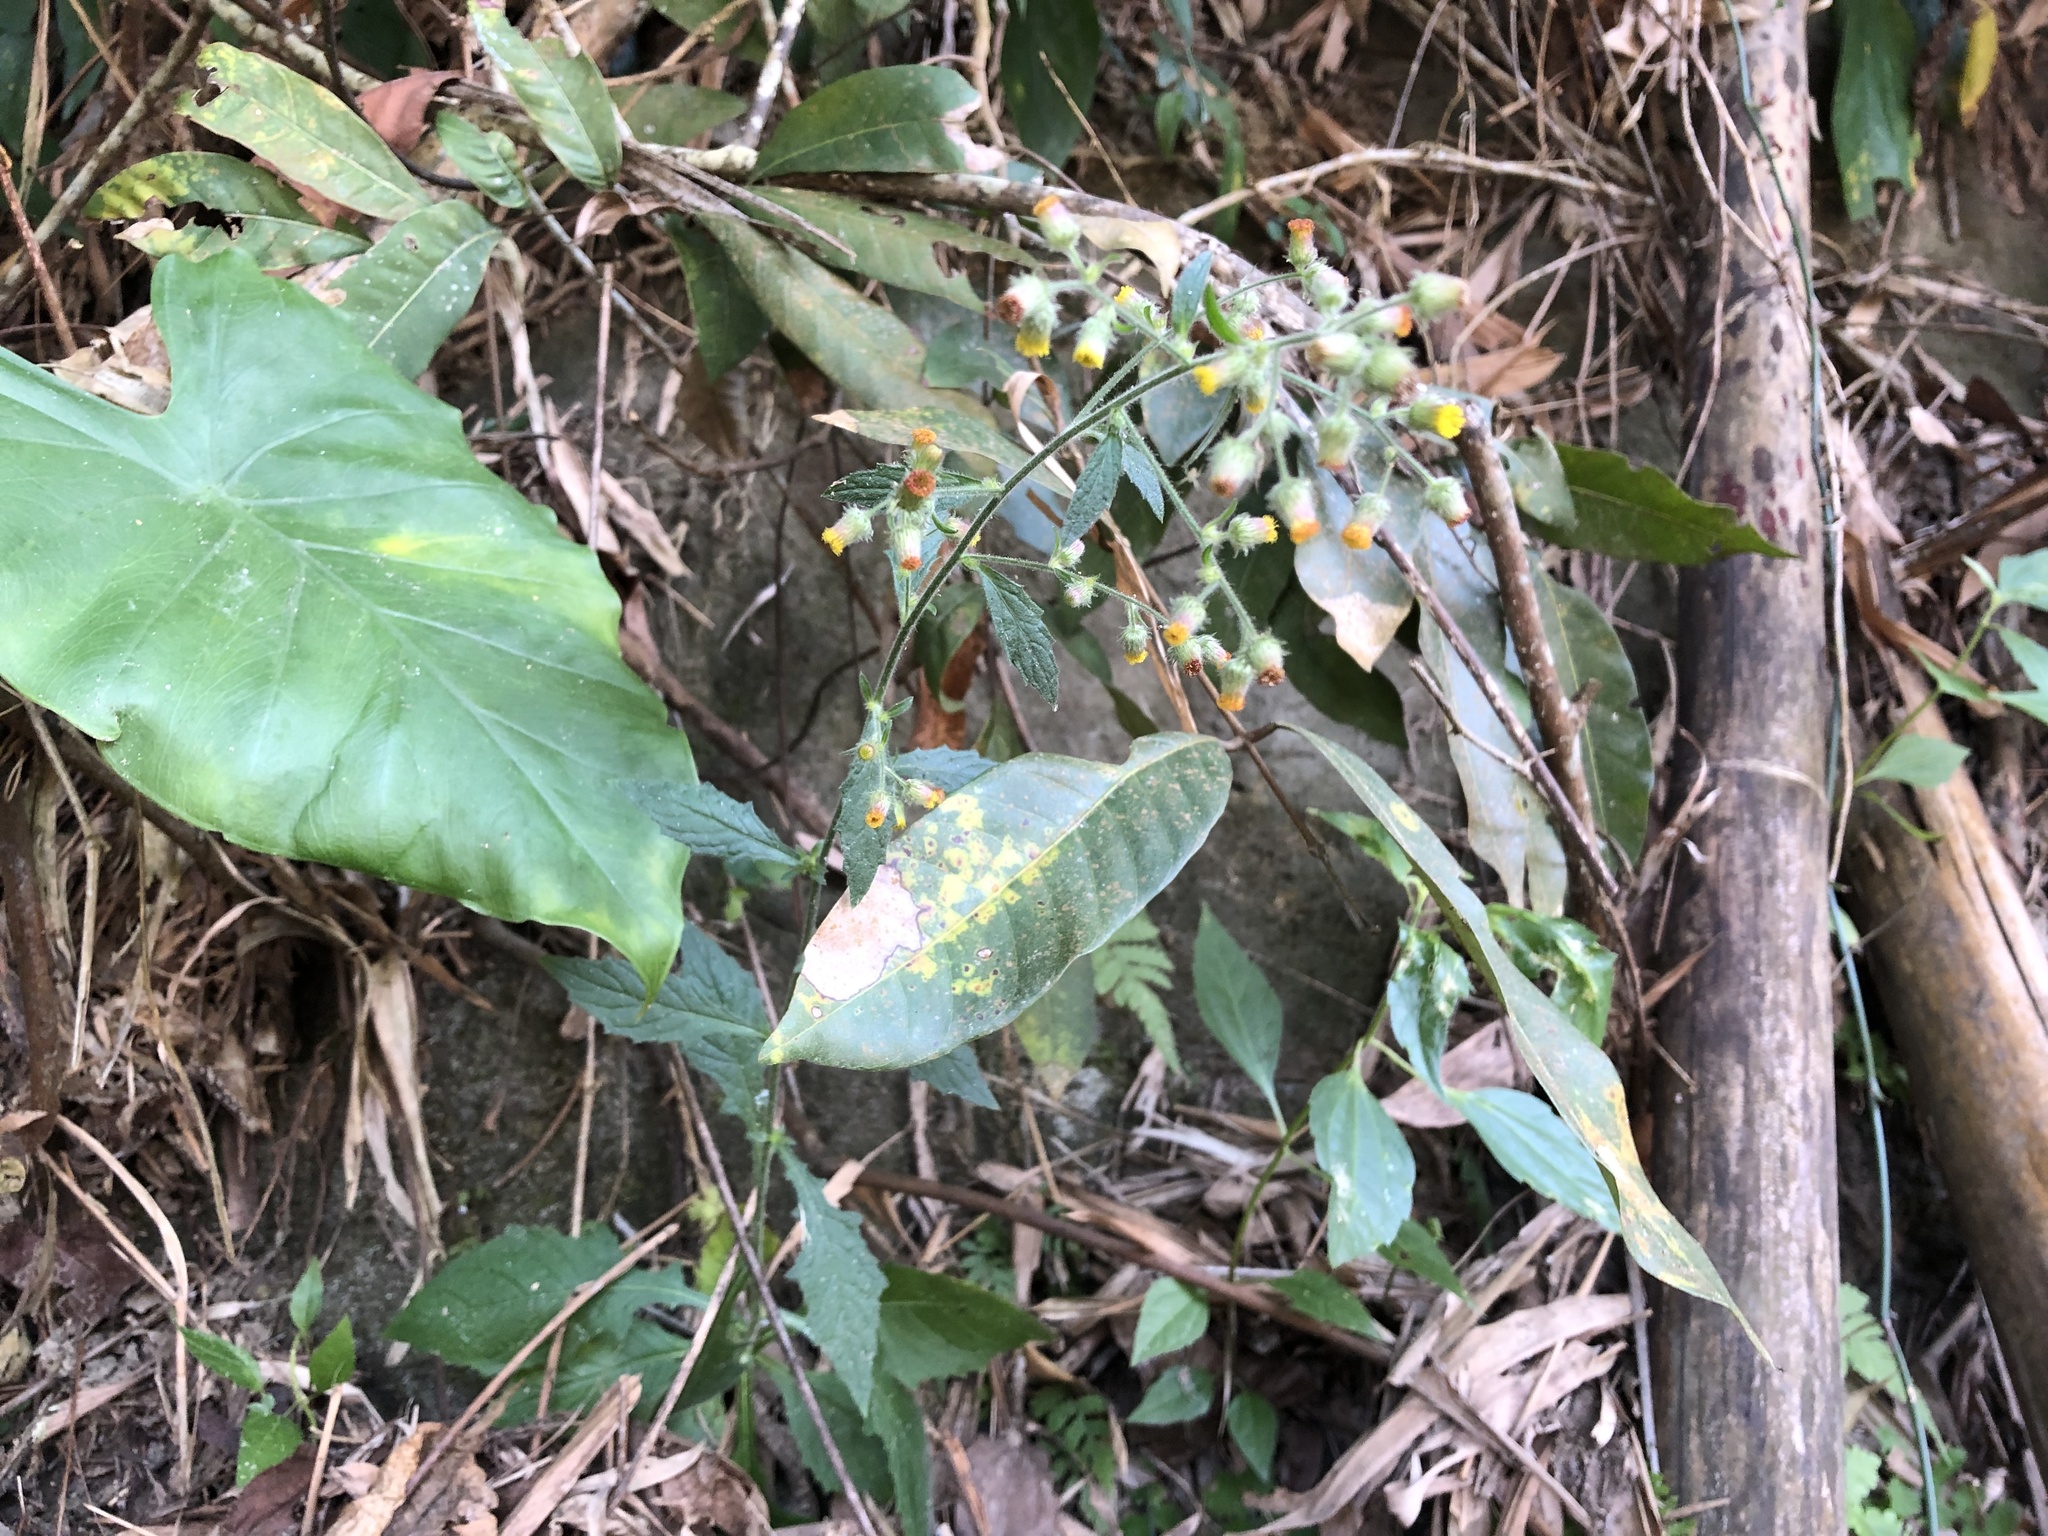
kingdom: Plantae
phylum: Tracheophyta
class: Magnoliopsida
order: Asterales
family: Asteraceae
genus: Blumea
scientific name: Blumea sinuata
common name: Cutleaf false oxtongue
